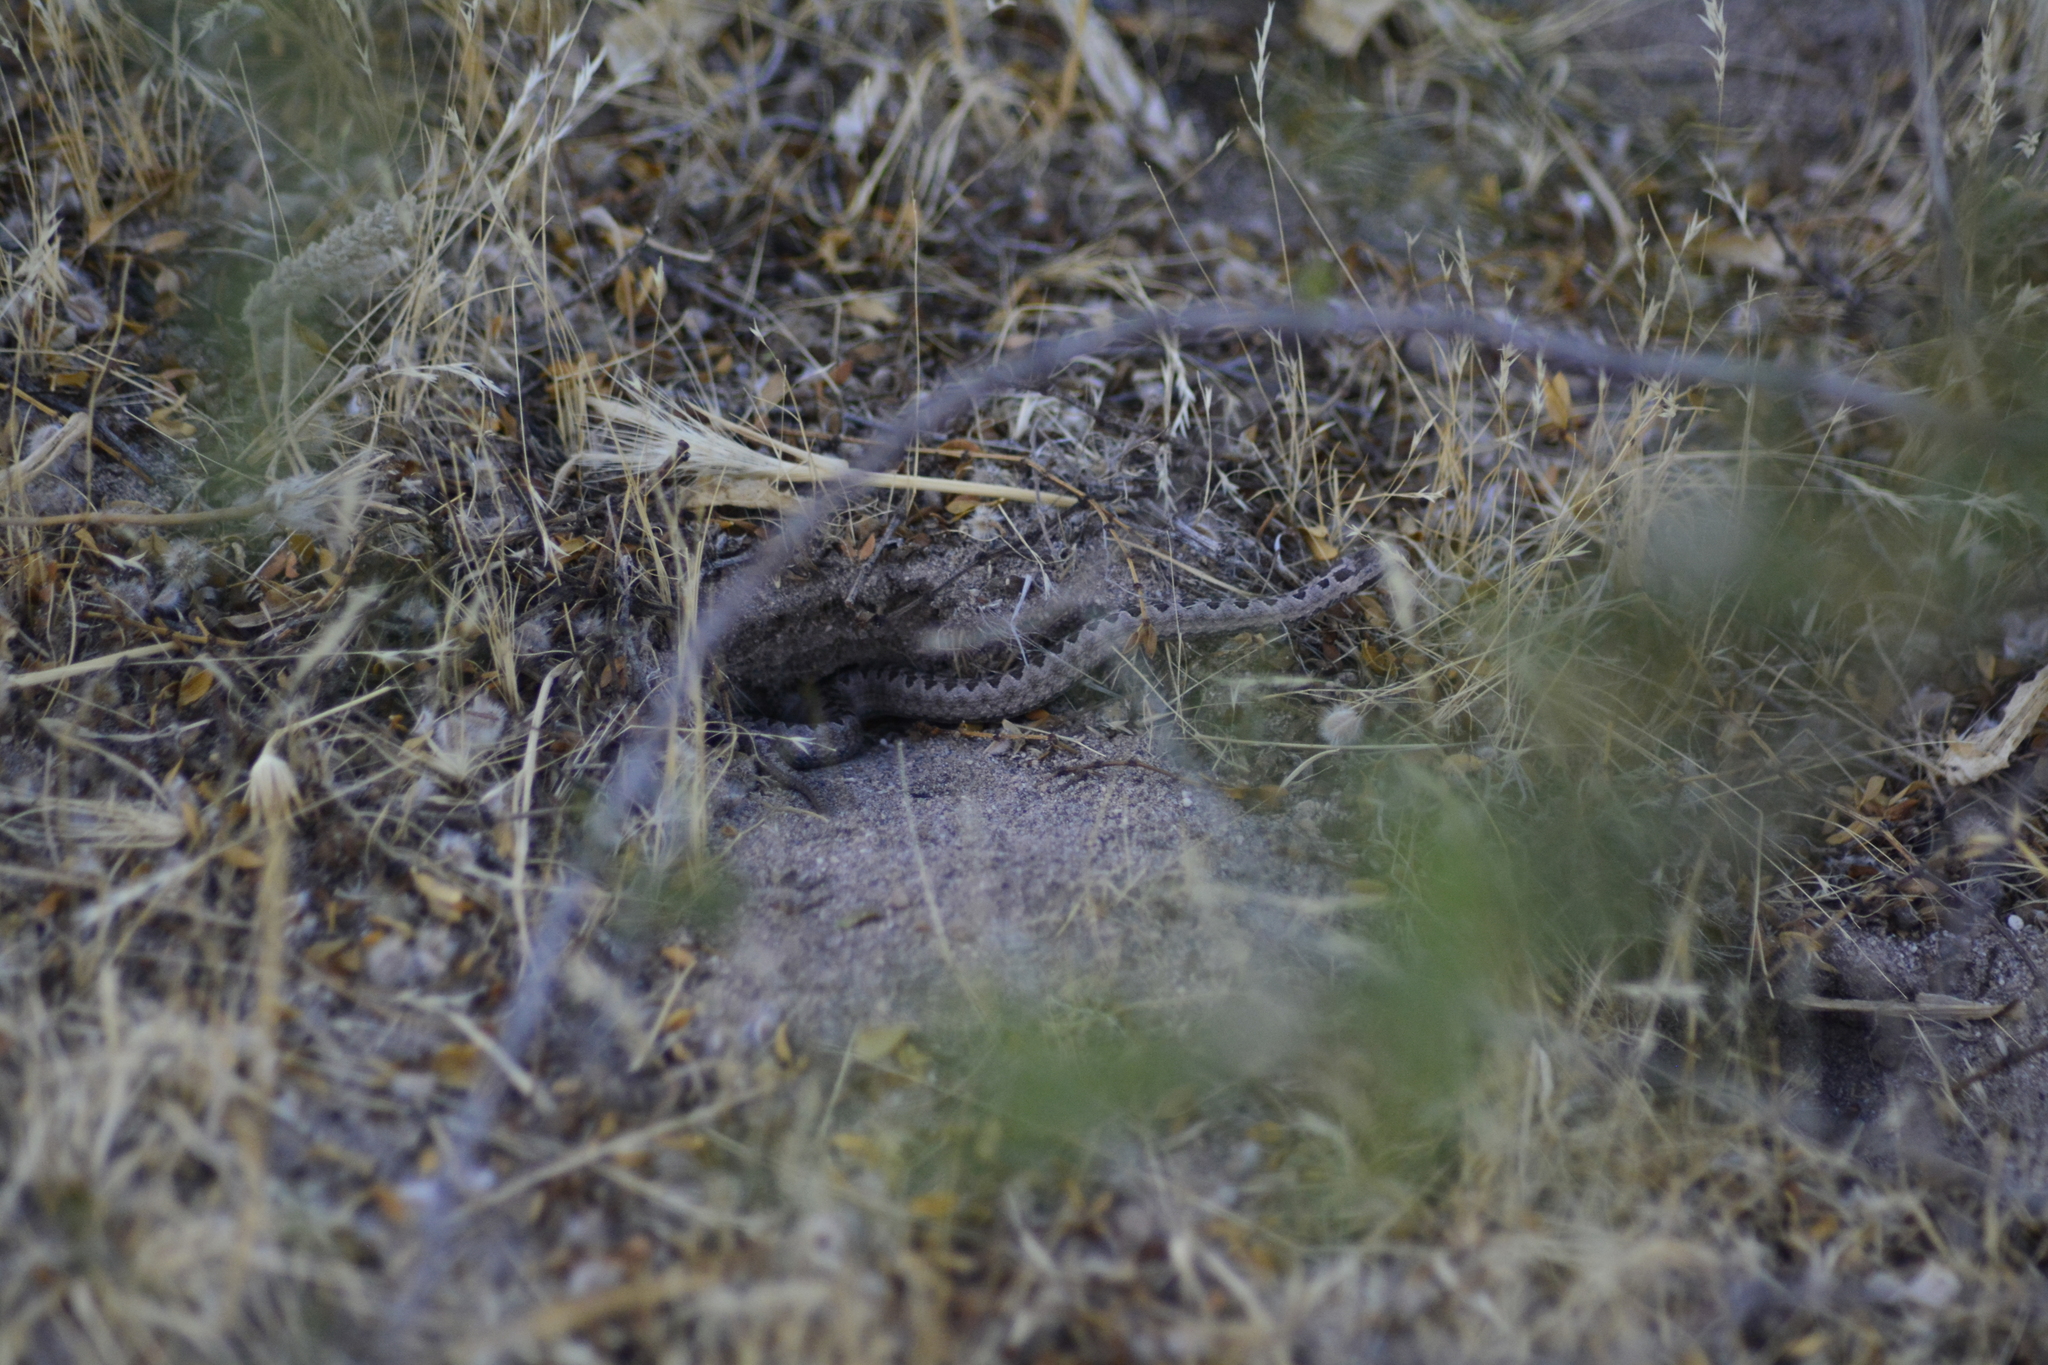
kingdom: Animalia
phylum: Chordata
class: Squamata
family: Colubridae
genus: Tachymenis
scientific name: Tachymenis
